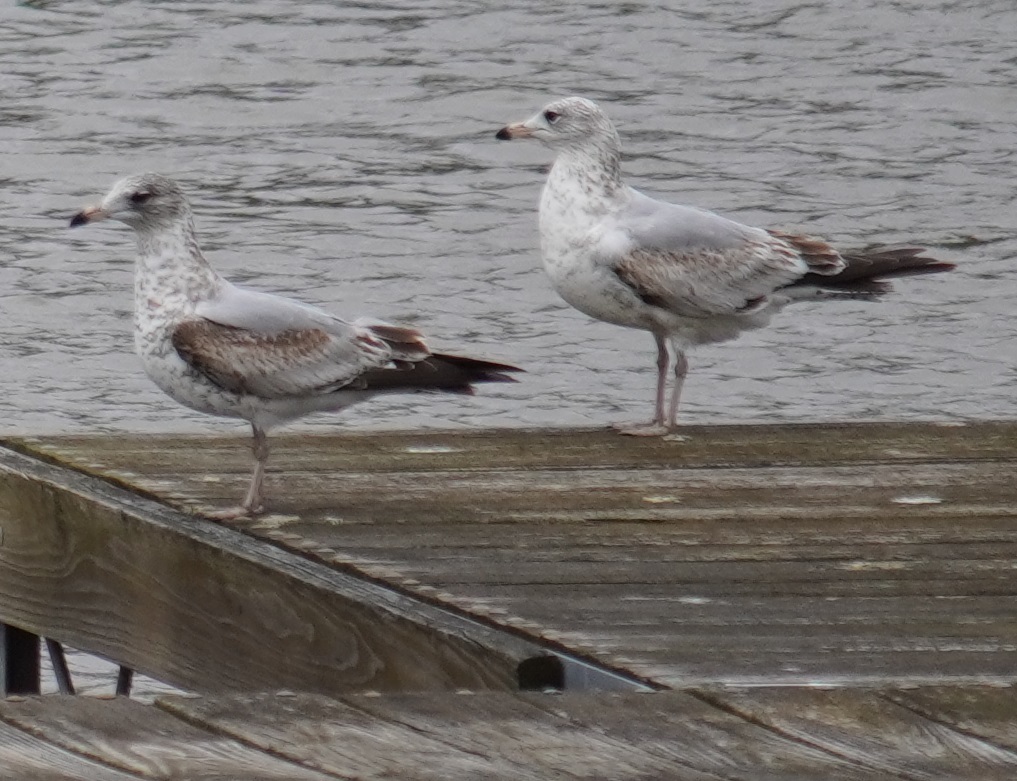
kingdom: Animalia
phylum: Chordata
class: Aves
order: Charadriiformes
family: Laridae
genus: Larus
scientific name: Larus delawarensis
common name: Ring-billed gull
